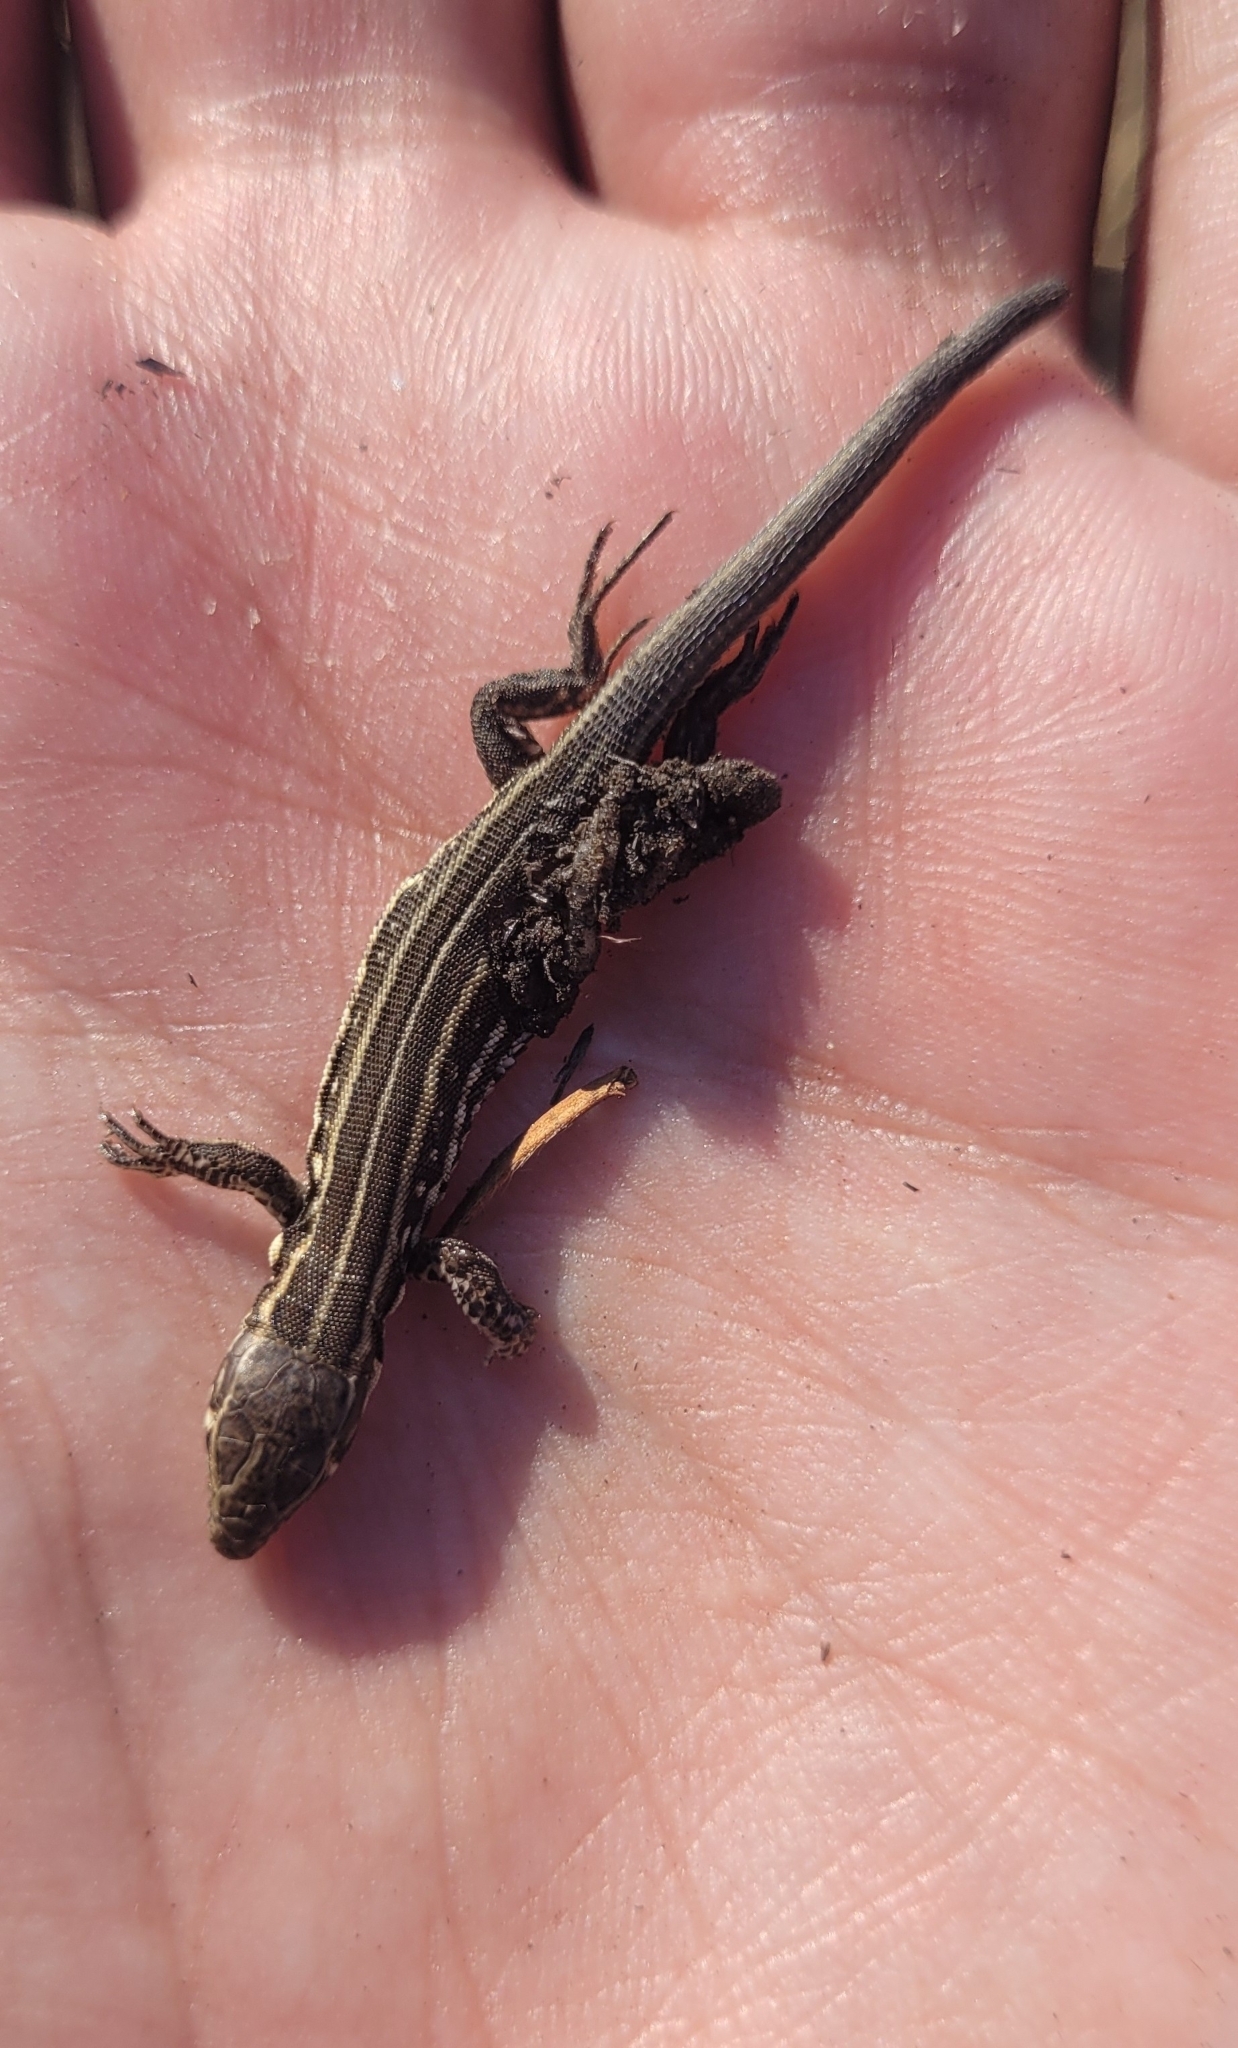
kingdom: Animalia
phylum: Chordata
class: Squamata
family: Lacertidae
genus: Lacerta
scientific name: Lacerta agilis
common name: Sand lizard
